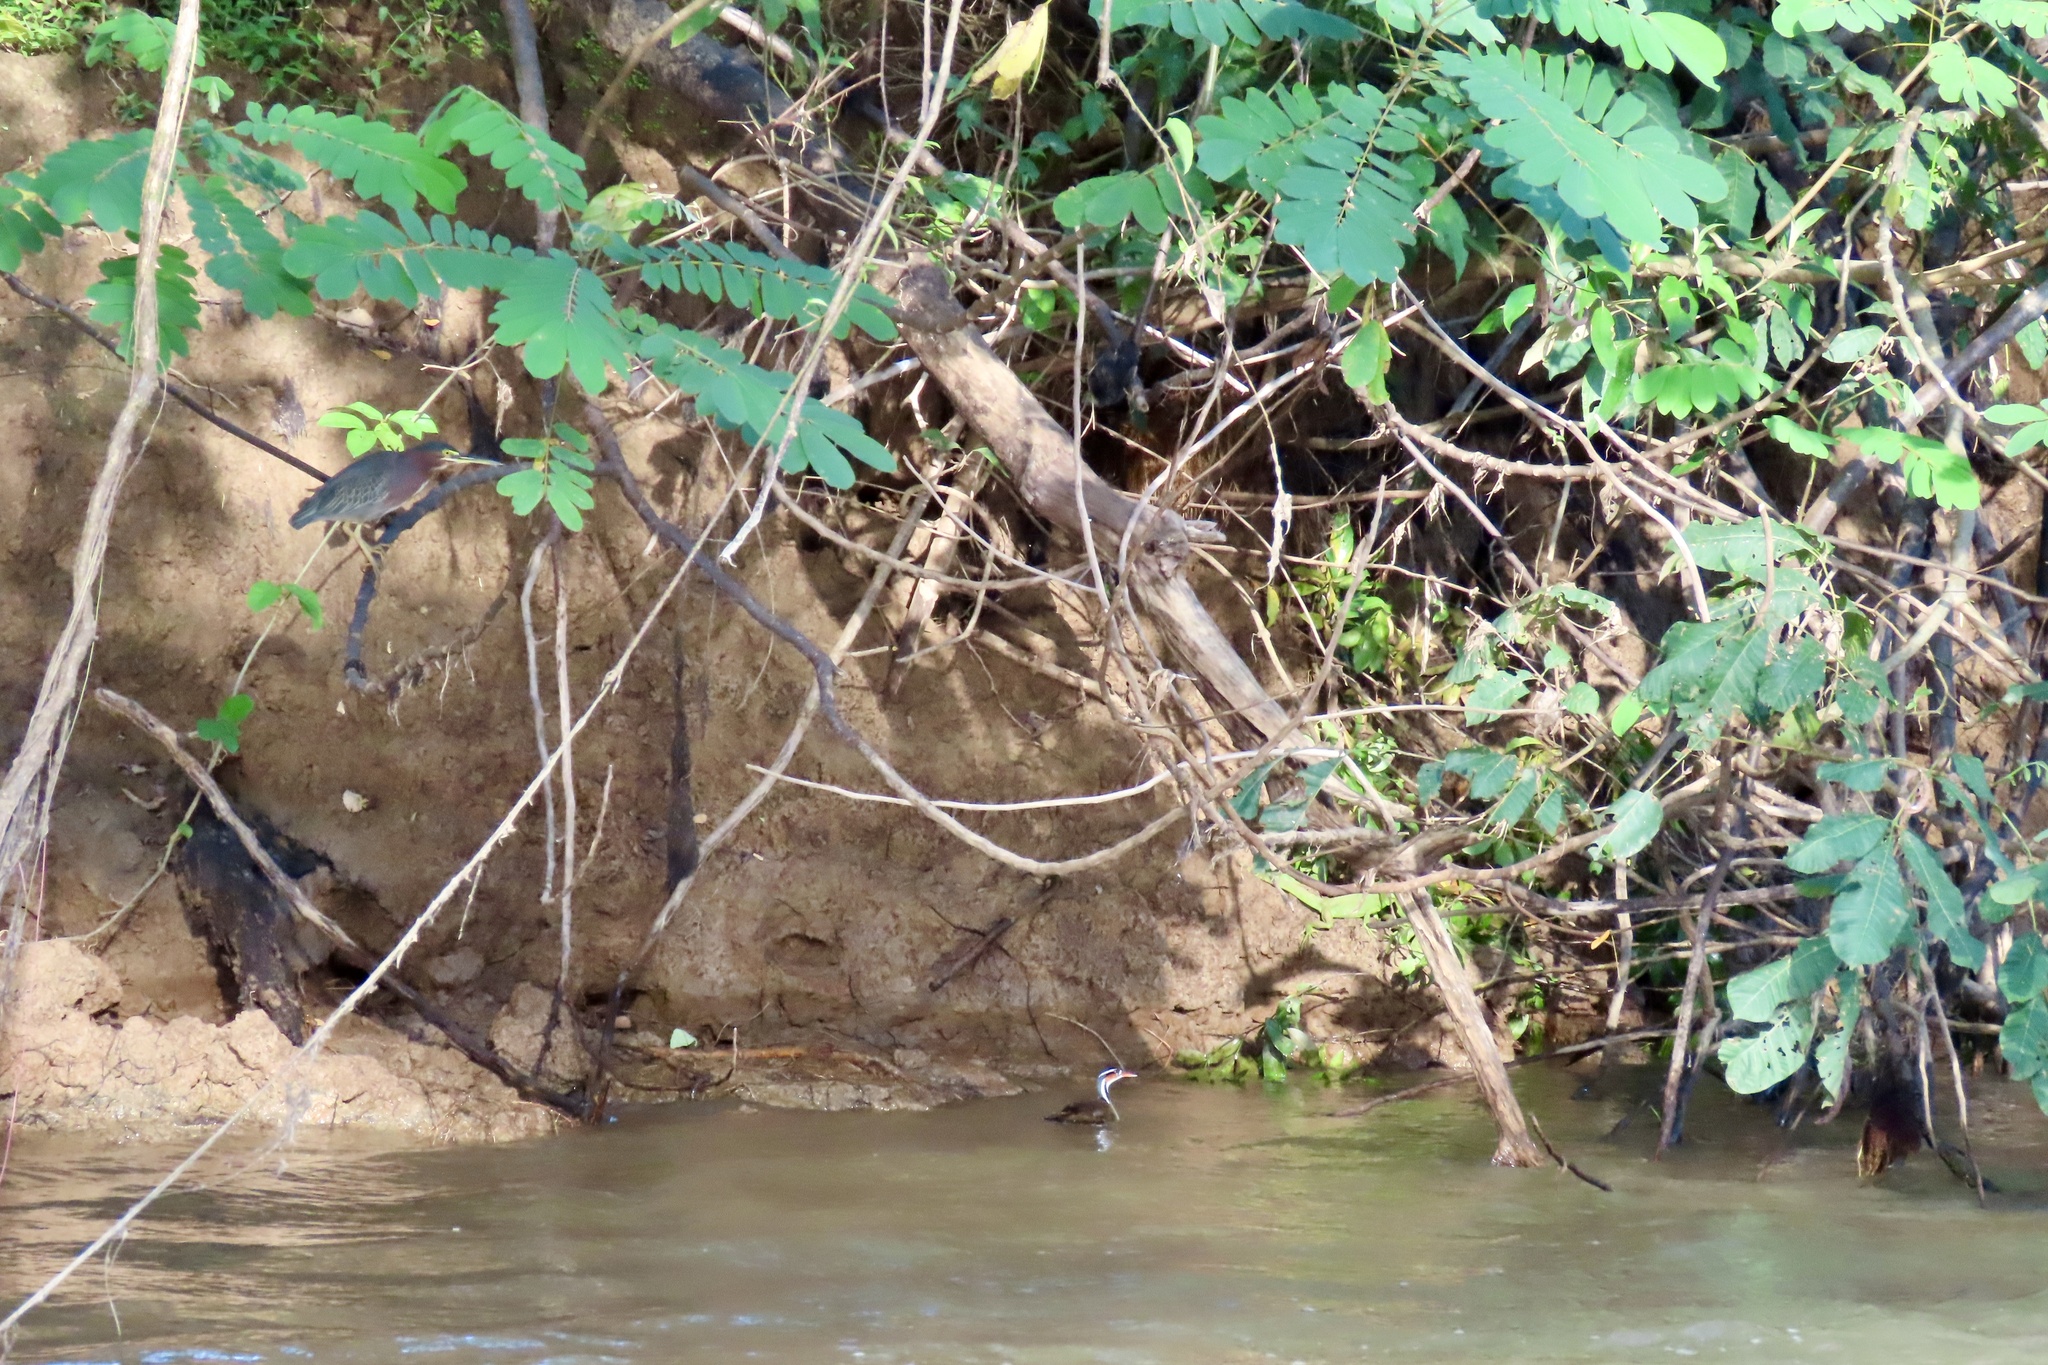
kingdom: Animalia
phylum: Chordata
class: Aves
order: Gruiformes
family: Heliornithidae
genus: Heliornis
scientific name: Heliornis fulica
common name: Sungrebe
